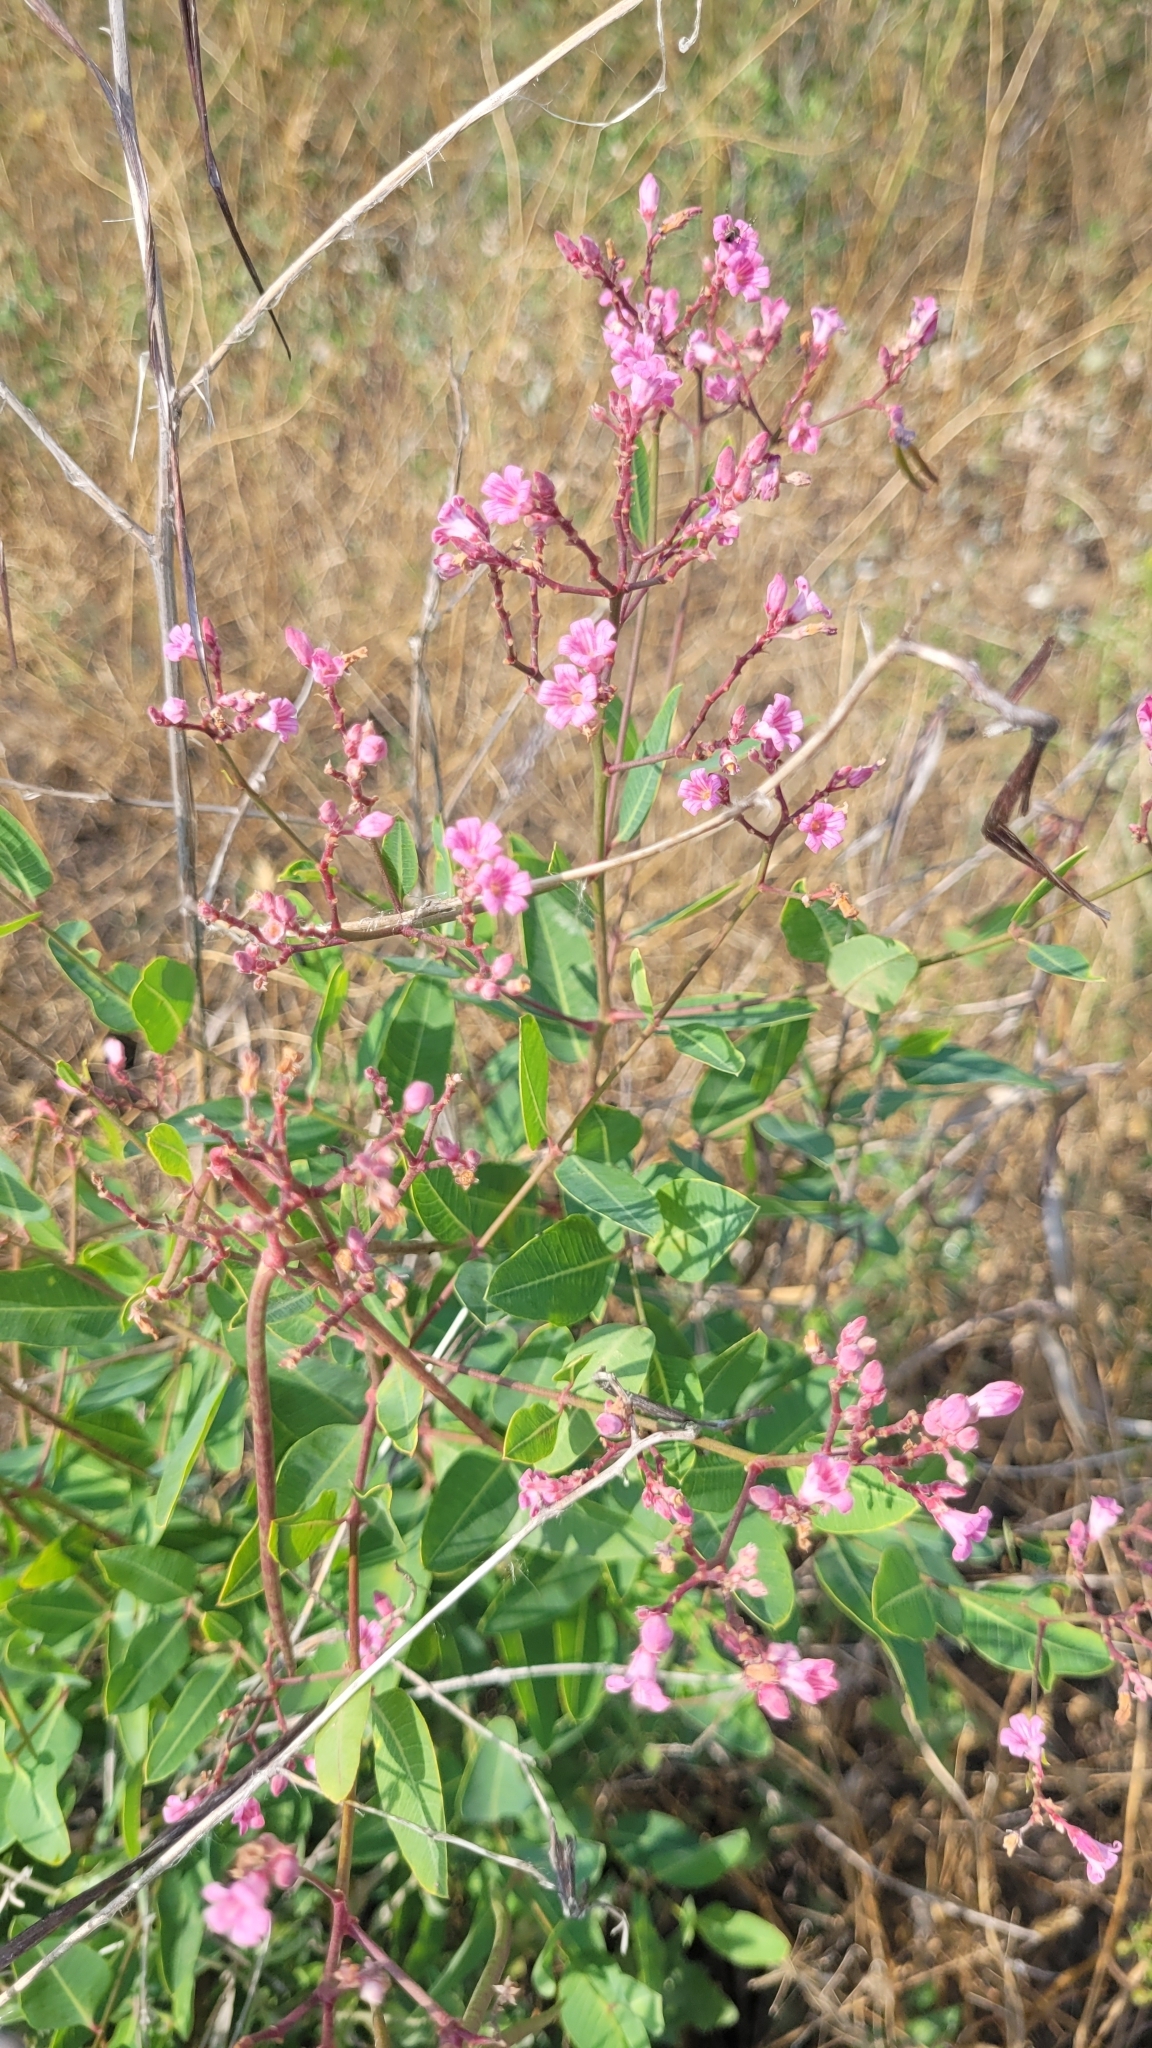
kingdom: Plantae
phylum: Tracheophyta
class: Magnoliopsida
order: Gentianales
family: Apocynaceae
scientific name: Apocynaceae
